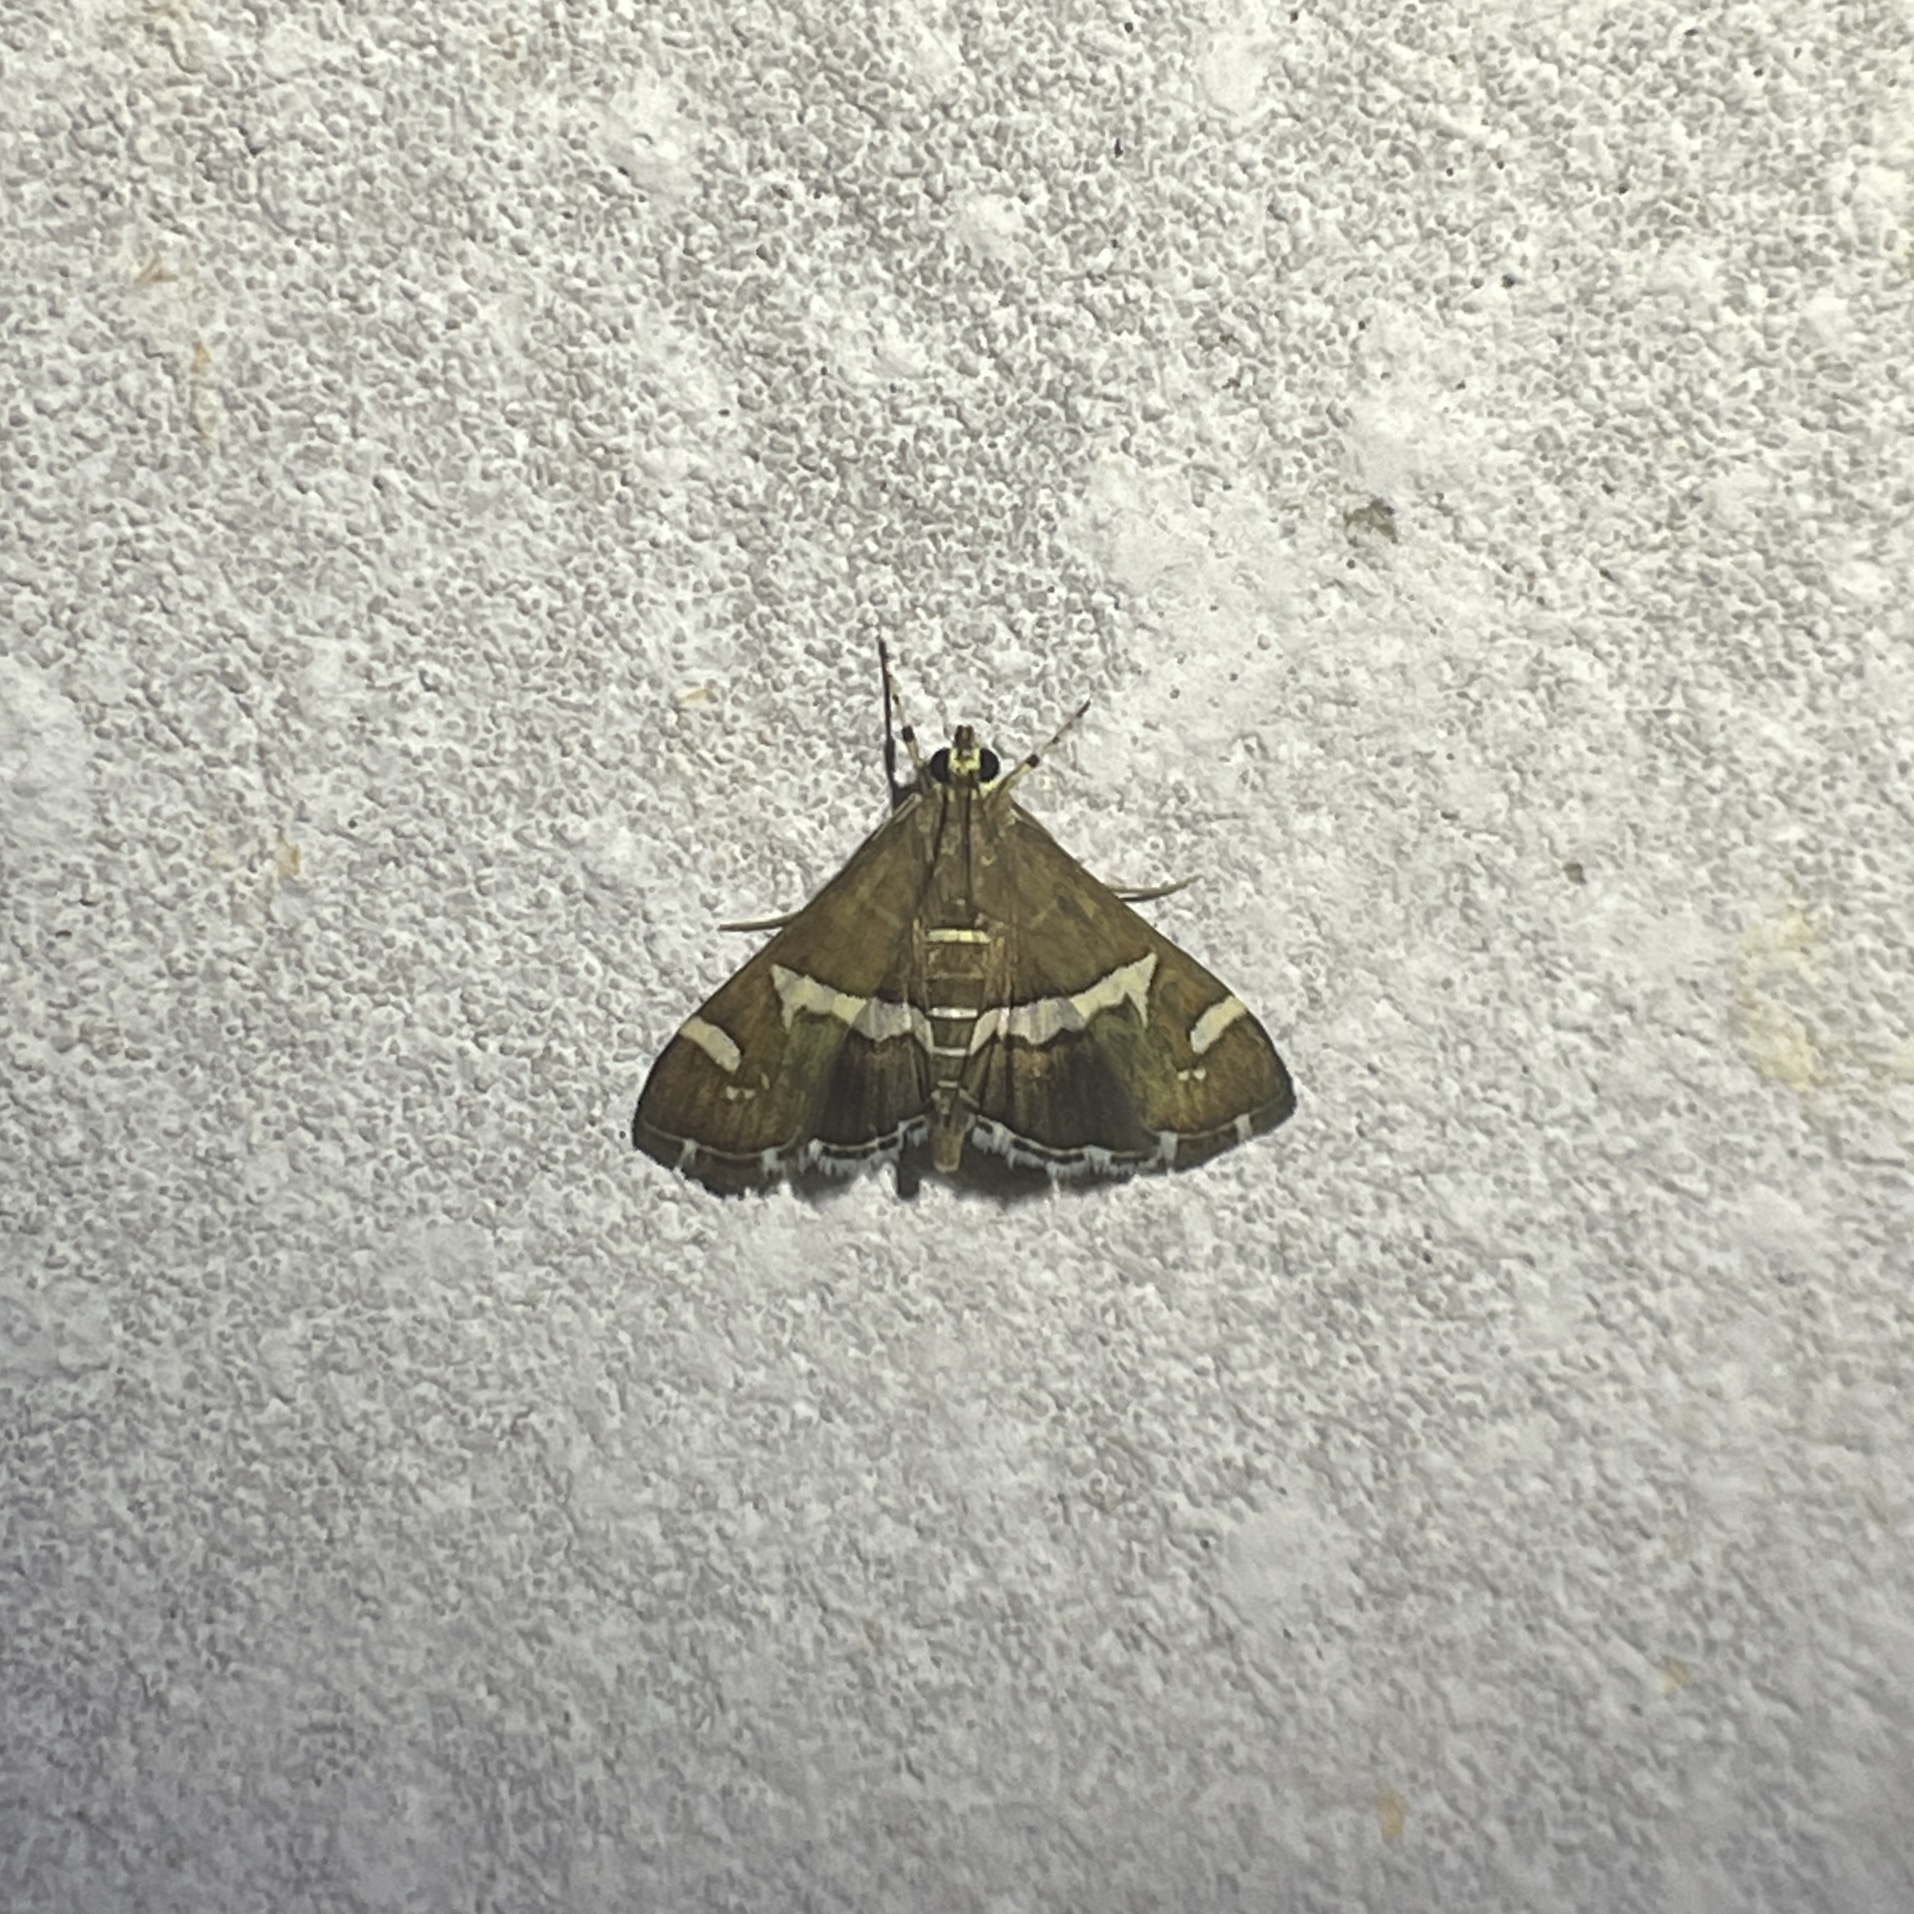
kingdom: Animalia
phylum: Arthropoda
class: Insecta
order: Lepidoptera
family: Crambidae
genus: Spoladea
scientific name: Spoladea recurvalis
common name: Beet webworm moth
